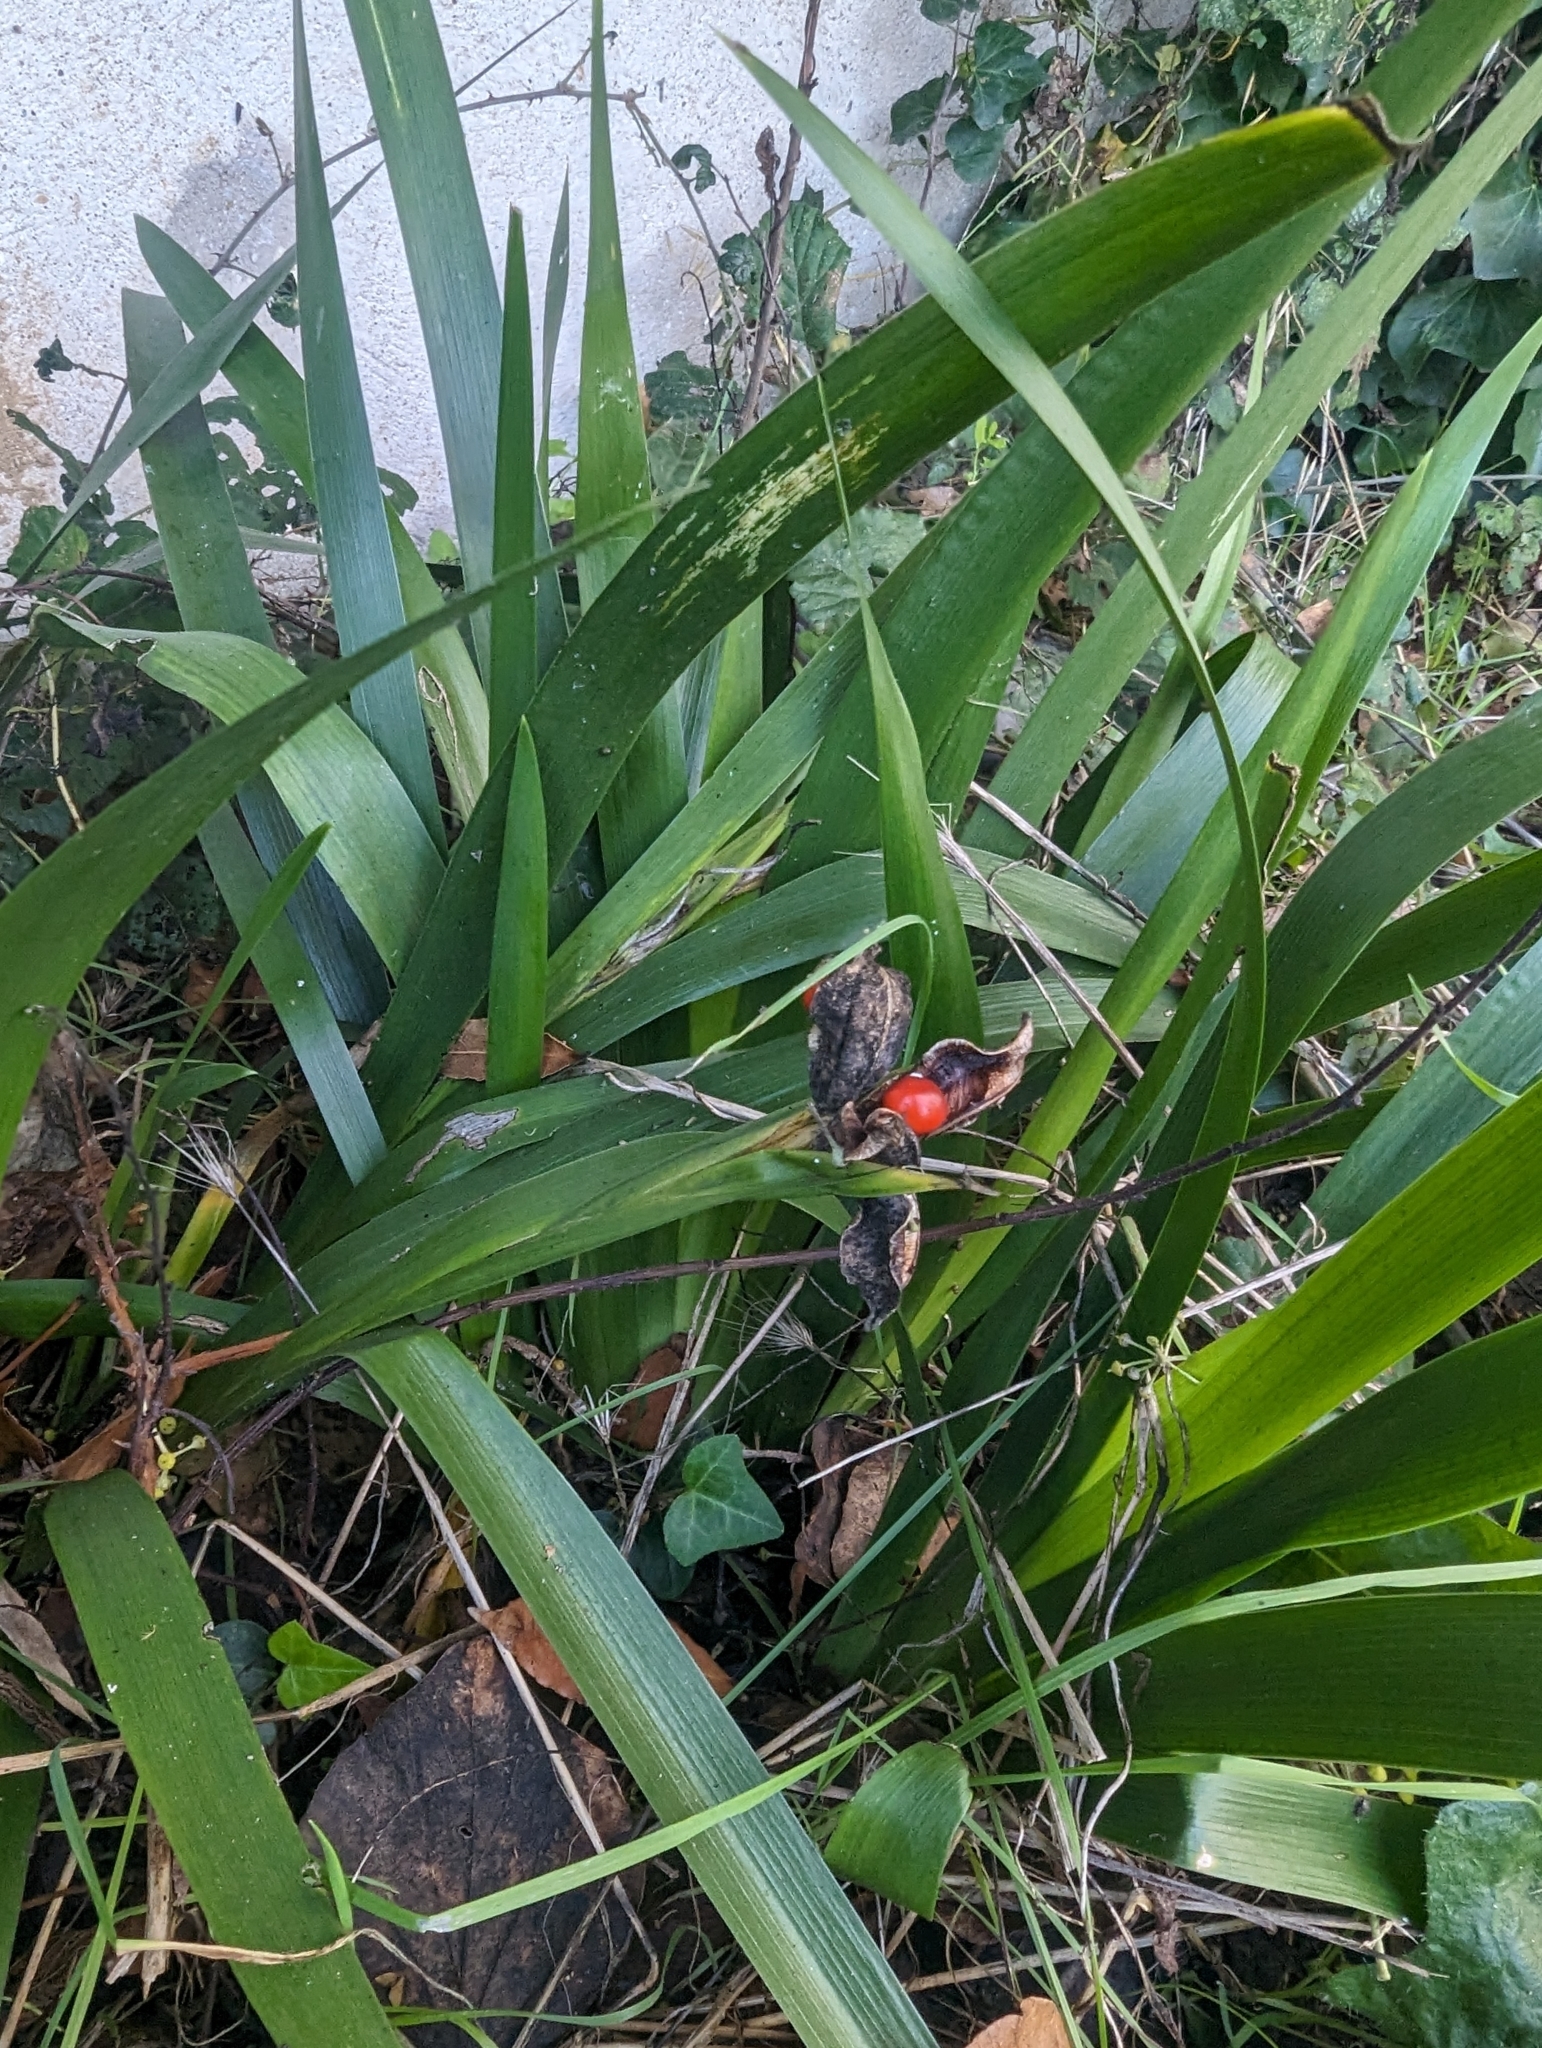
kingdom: Plantae
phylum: Tracheophyta
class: Liliopsida
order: Asparagales
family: Iridaceae
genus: Iris
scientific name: Iris foetidissima
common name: Stinking iris
